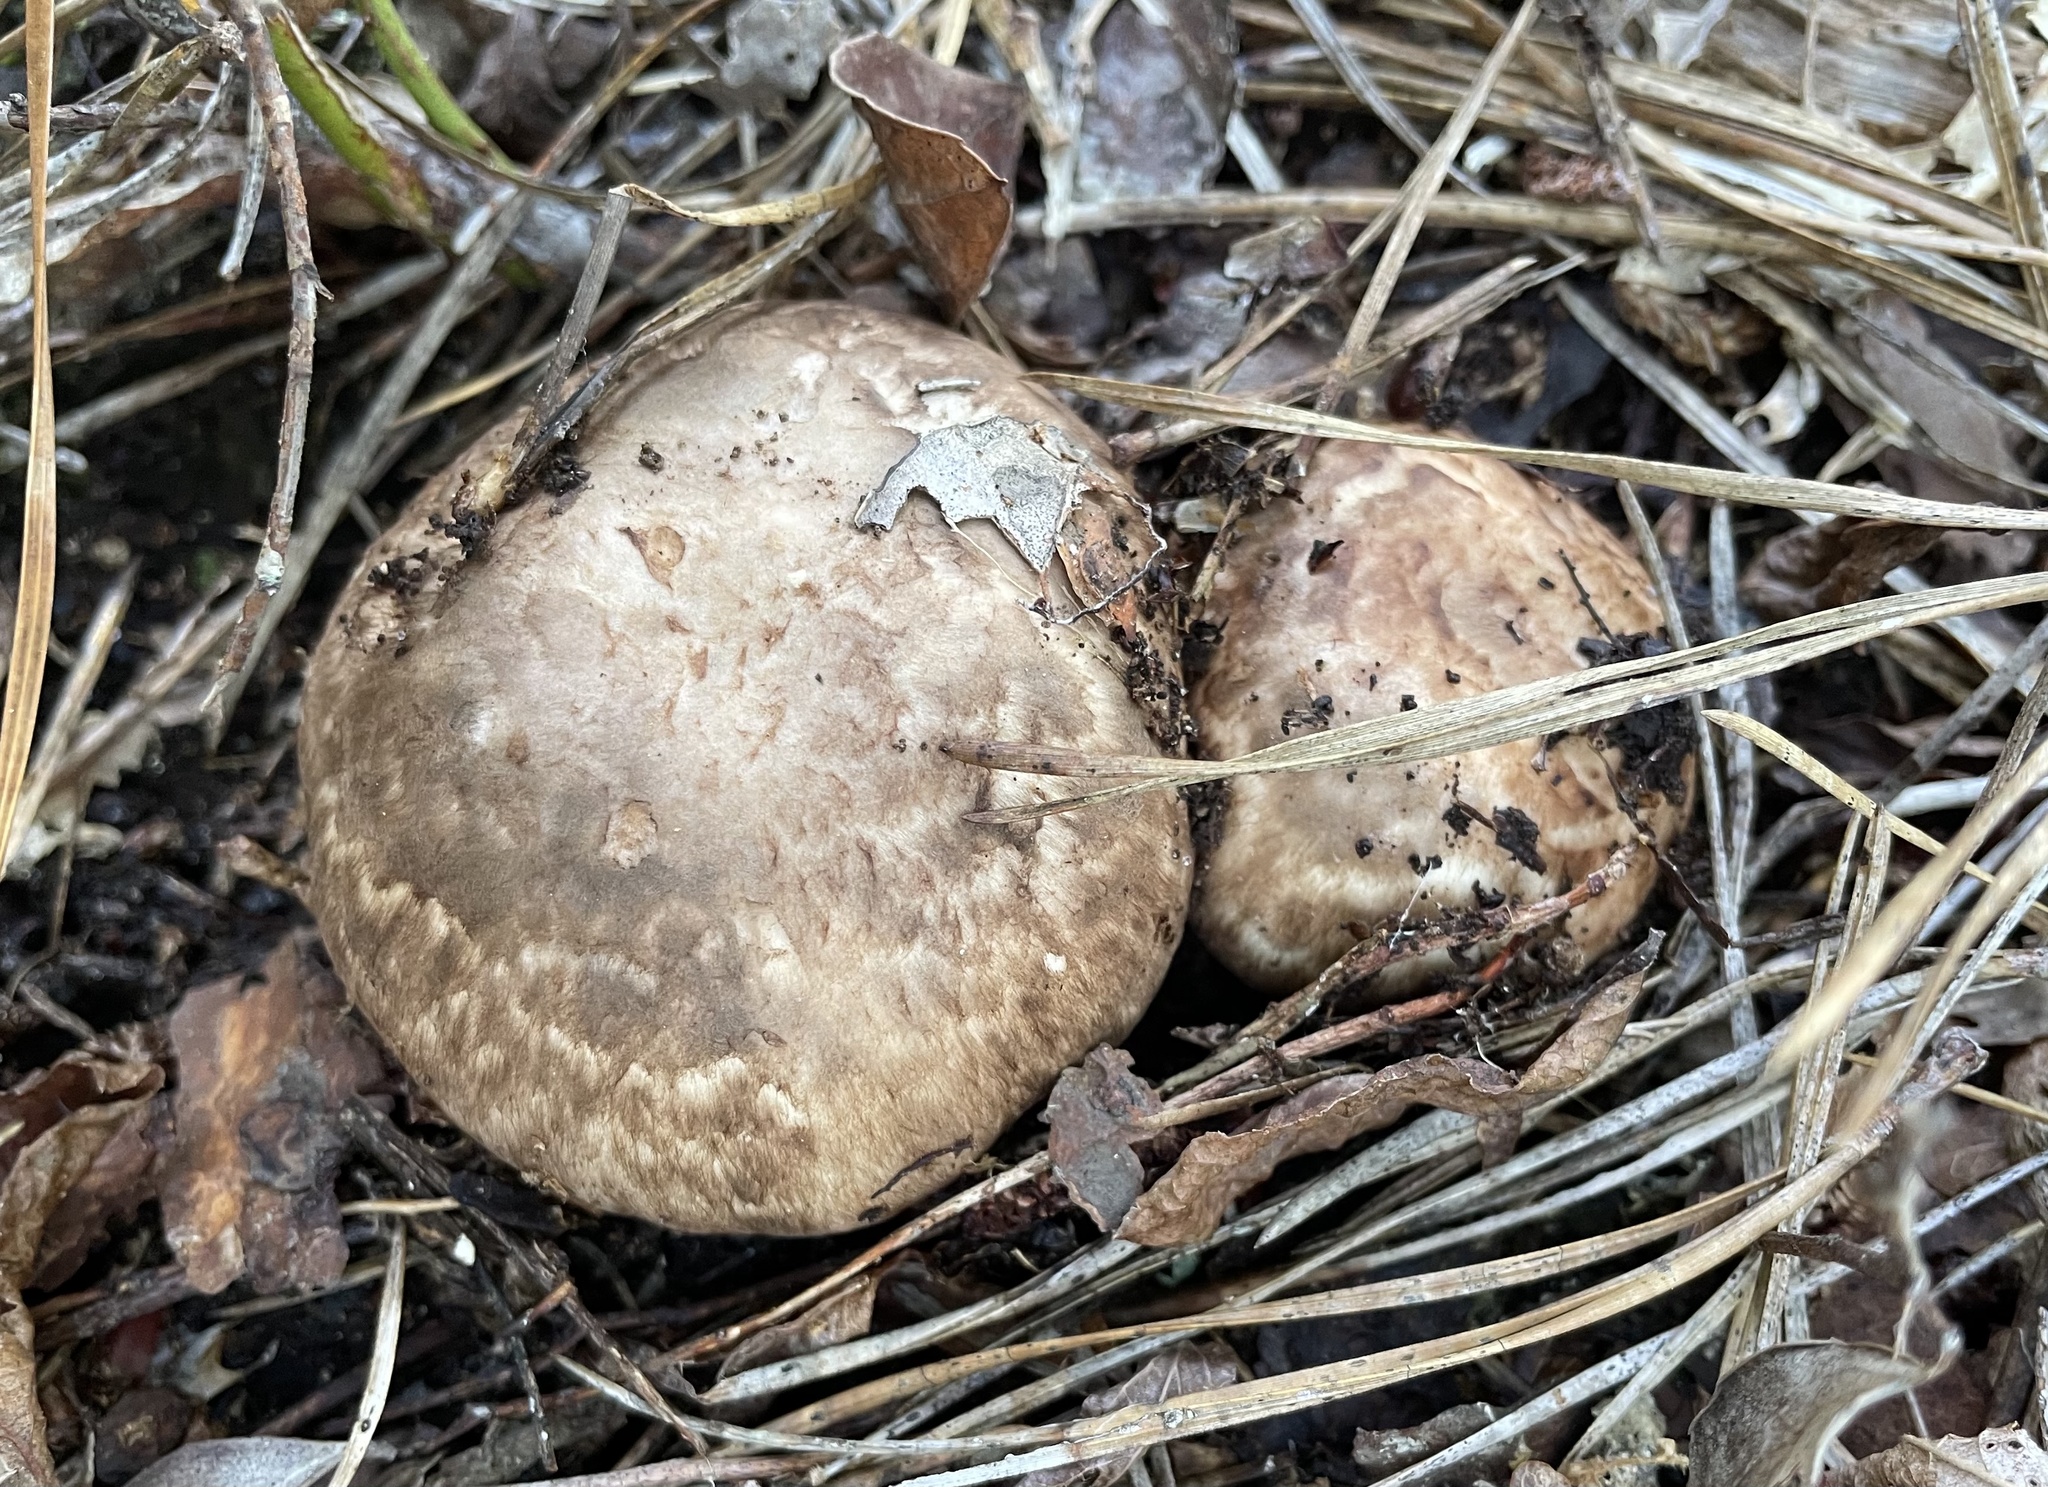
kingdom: Fungi
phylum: Basidiomycota
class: Agaricomycetes
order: Agaricales
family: Tricholomataceae
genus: Tricholoma
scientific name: Tricholoma caligatum
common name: True booted knight
